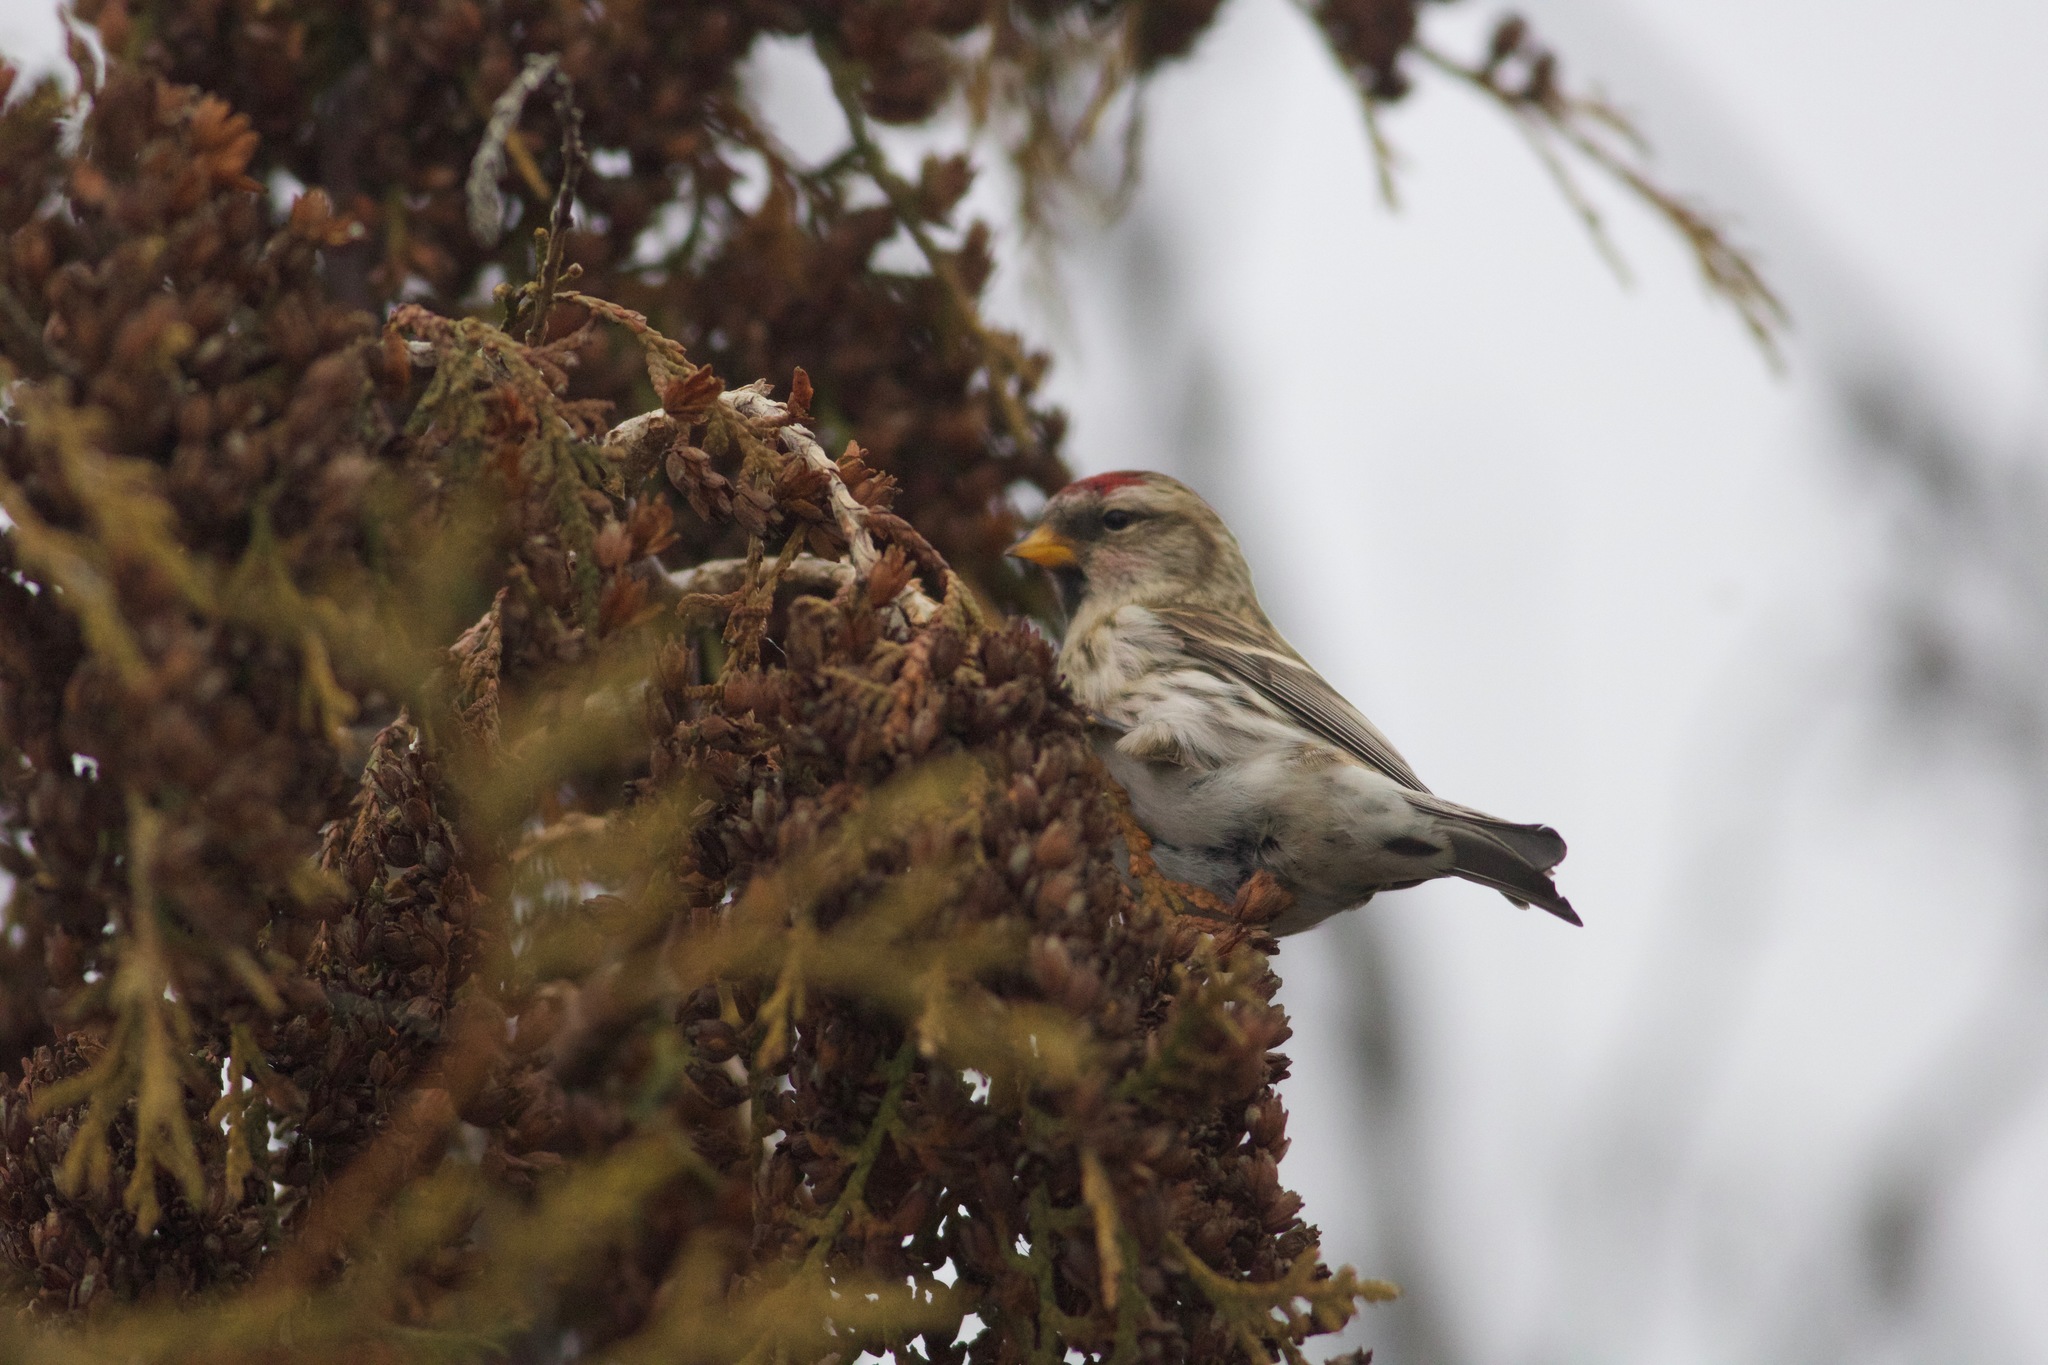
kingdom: Animalia
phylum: Chordata
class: Aves
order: Passeriformes
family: Fringillidae
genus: Acanthis
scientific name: Acanthis flammea
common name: Common redpoll
